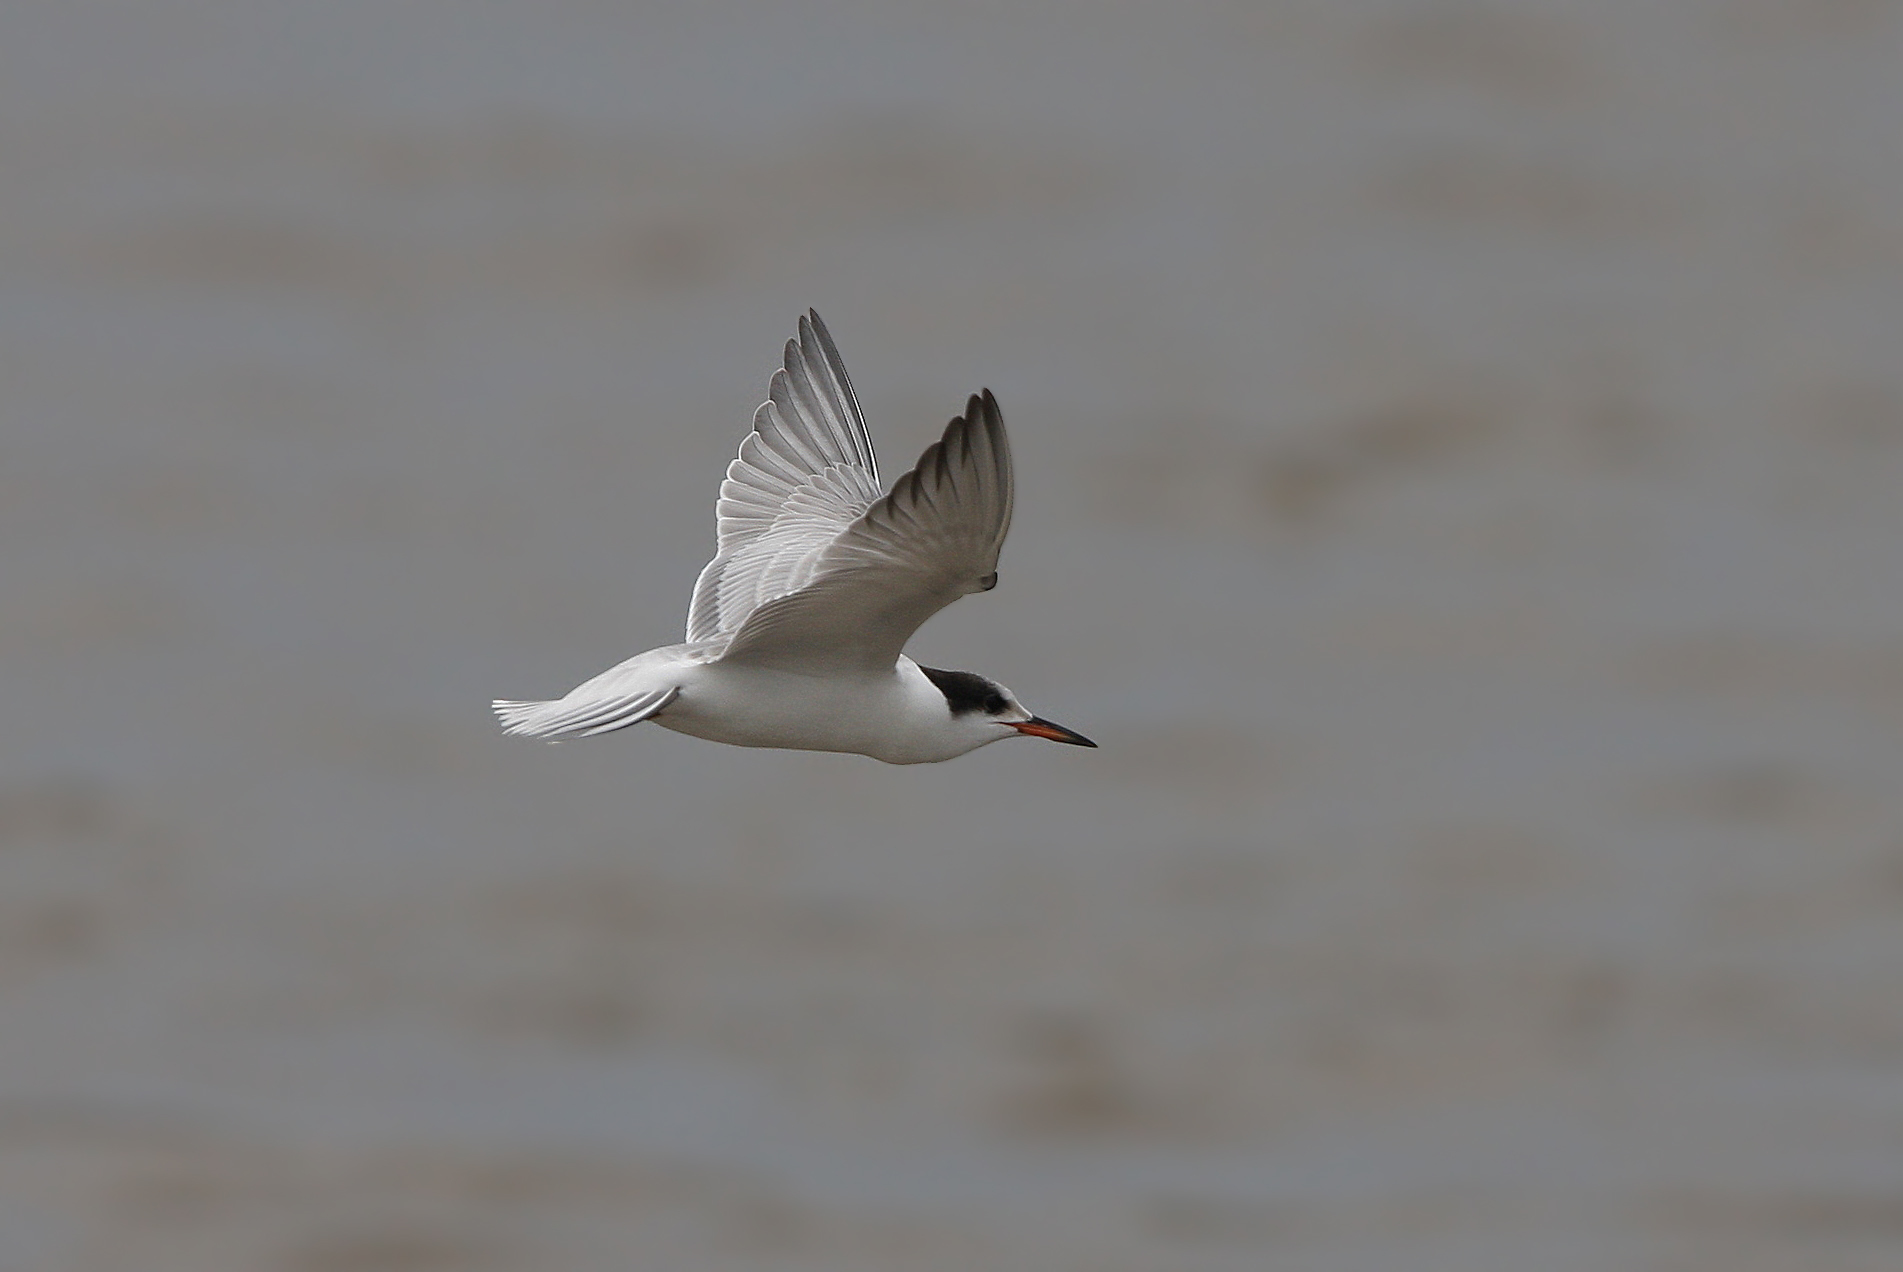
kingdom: Animalia
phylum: Chordata
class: Aves
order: Charadriiformes
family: Laridae
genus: Sterna
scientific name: Sterna hirundo
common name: Common tern
